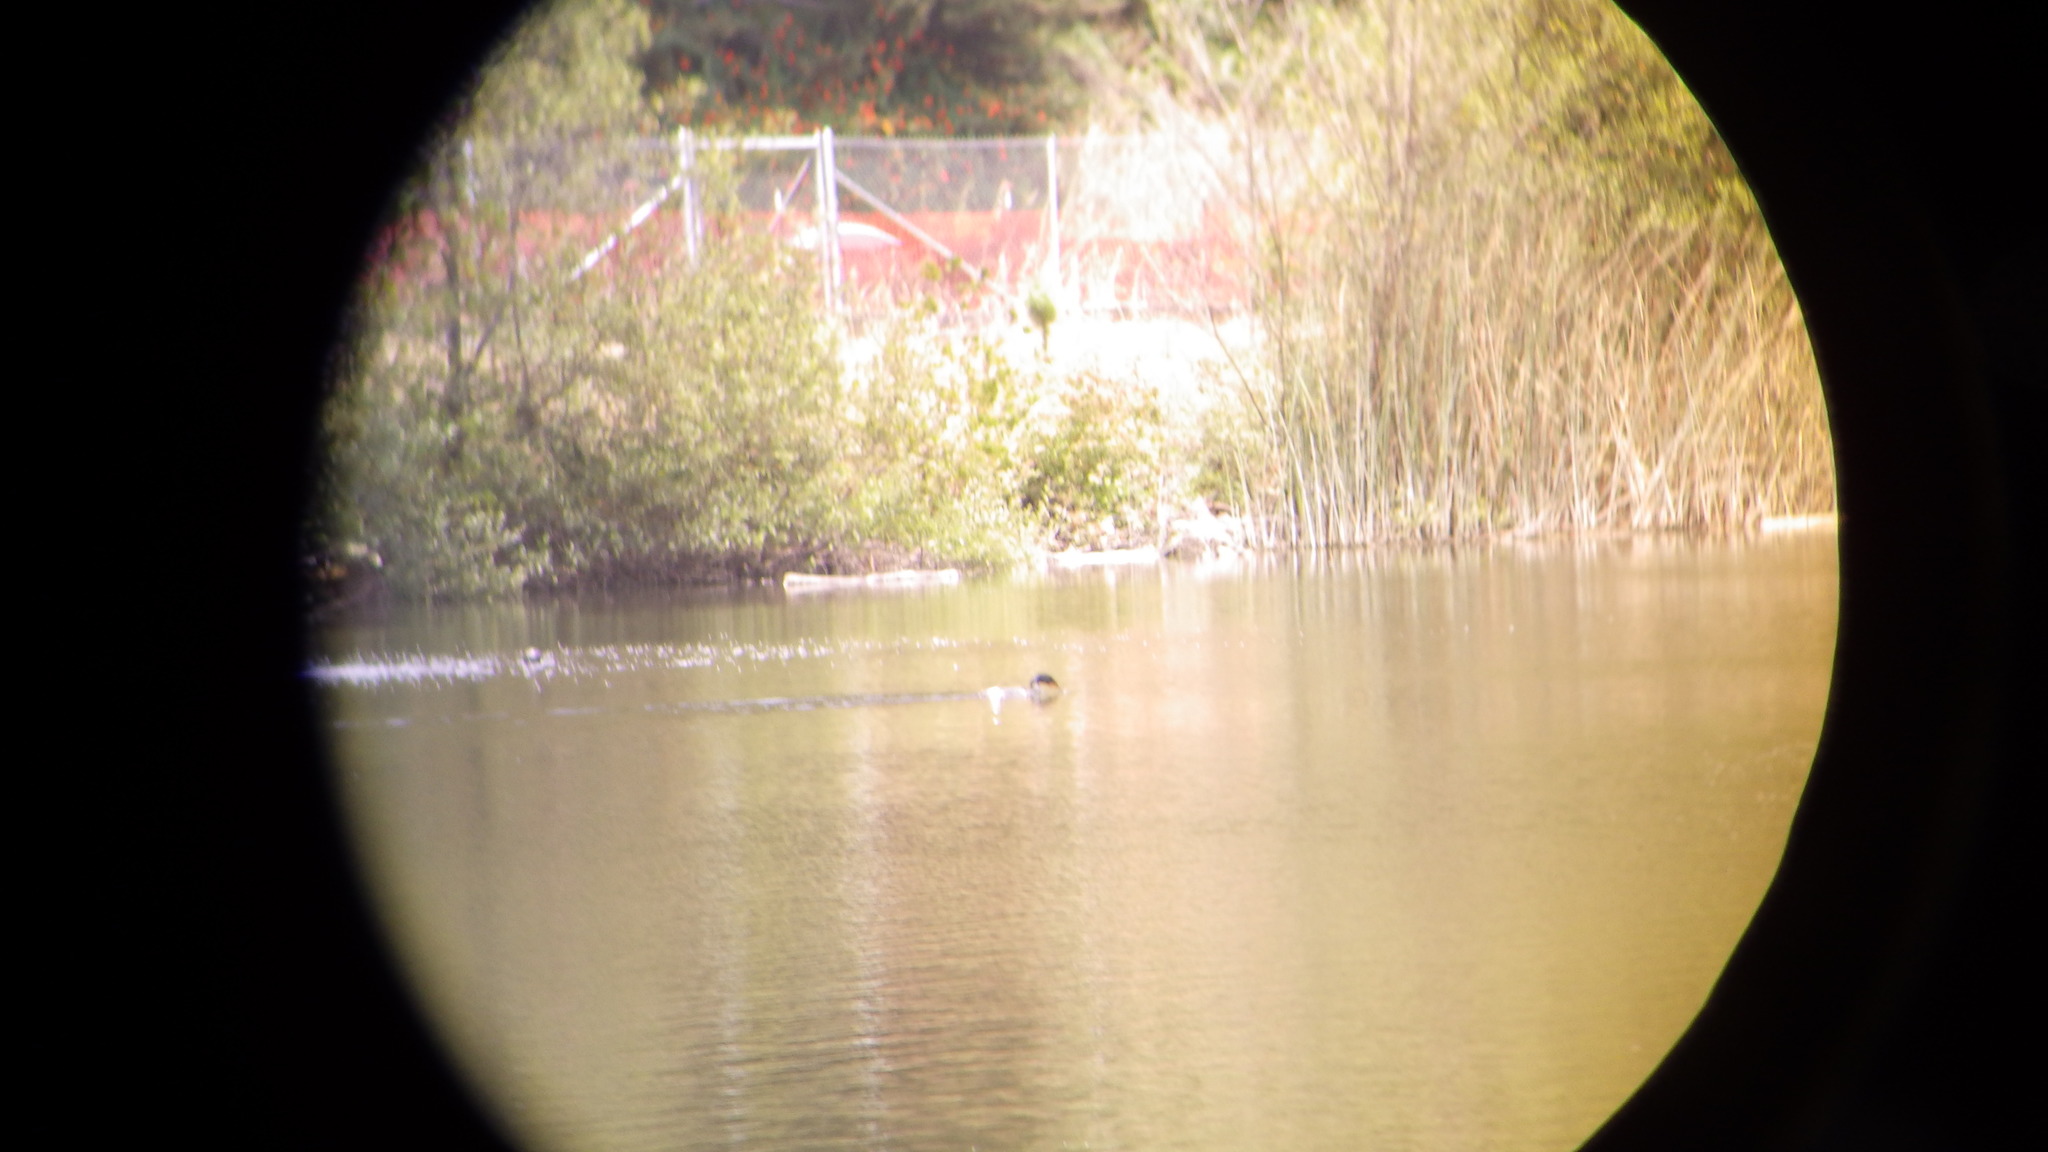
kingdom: Animalia
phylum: Chordata
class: Aves
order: Suliformes
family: Phalacrocoracidae
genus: Phalacrocorax
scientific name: Phalacrocorax auritus
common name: Double-crested cormorant
